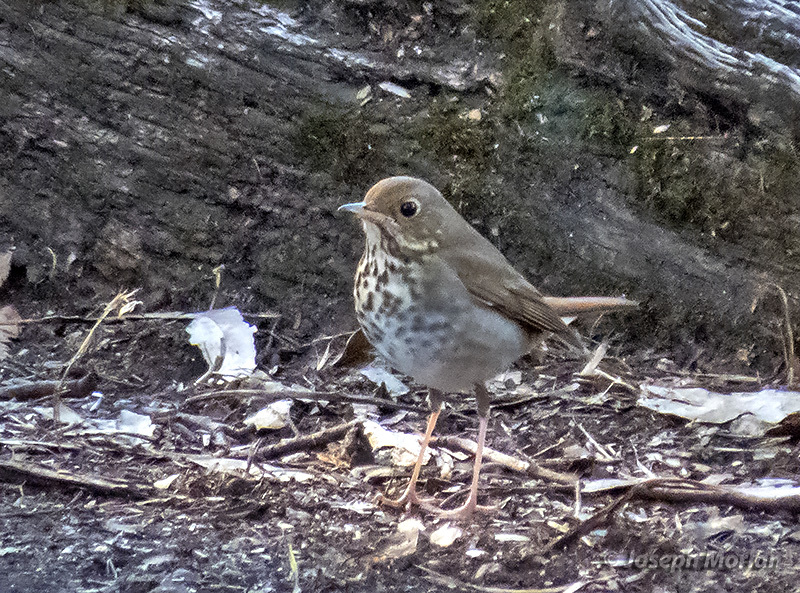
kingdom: Animalia
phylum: Chordata
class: Aves
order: Passeriformes
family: Turdidae
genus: Catharus
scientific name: Catharus guttatus
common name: Hermit thrush
